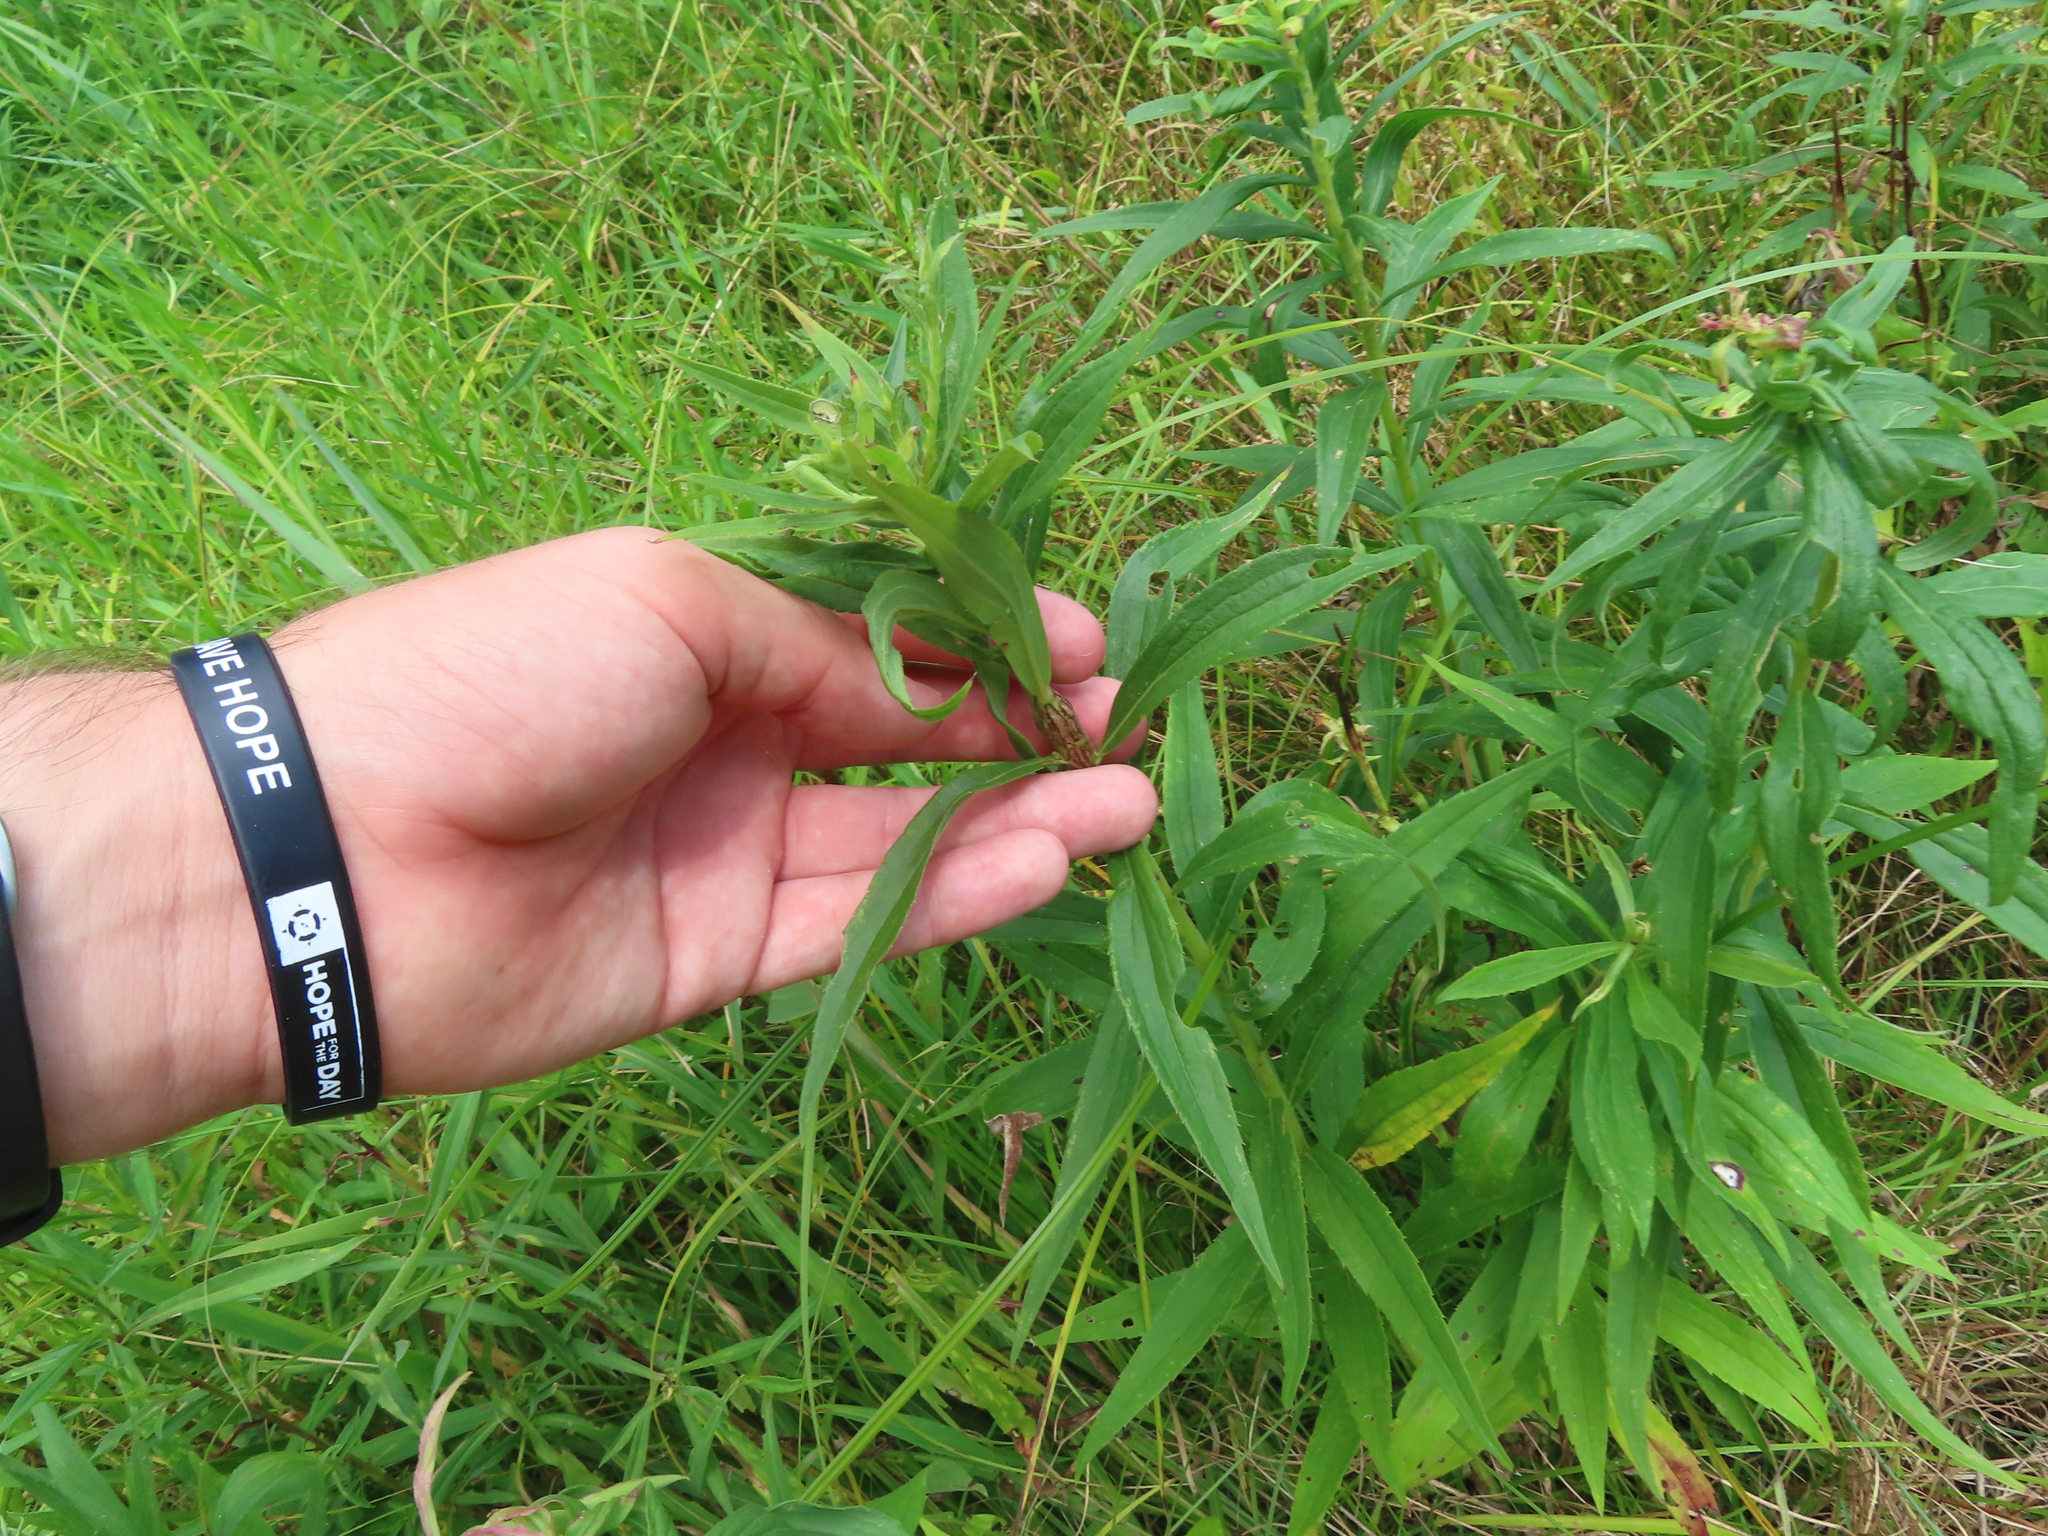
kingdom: Animalia
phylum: Arthropoda
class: Insecta
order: Lepidoptera
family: Tortricidae
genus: Epiblema
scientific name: Epiblema scudderiana
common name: Goldenrod gall moth
